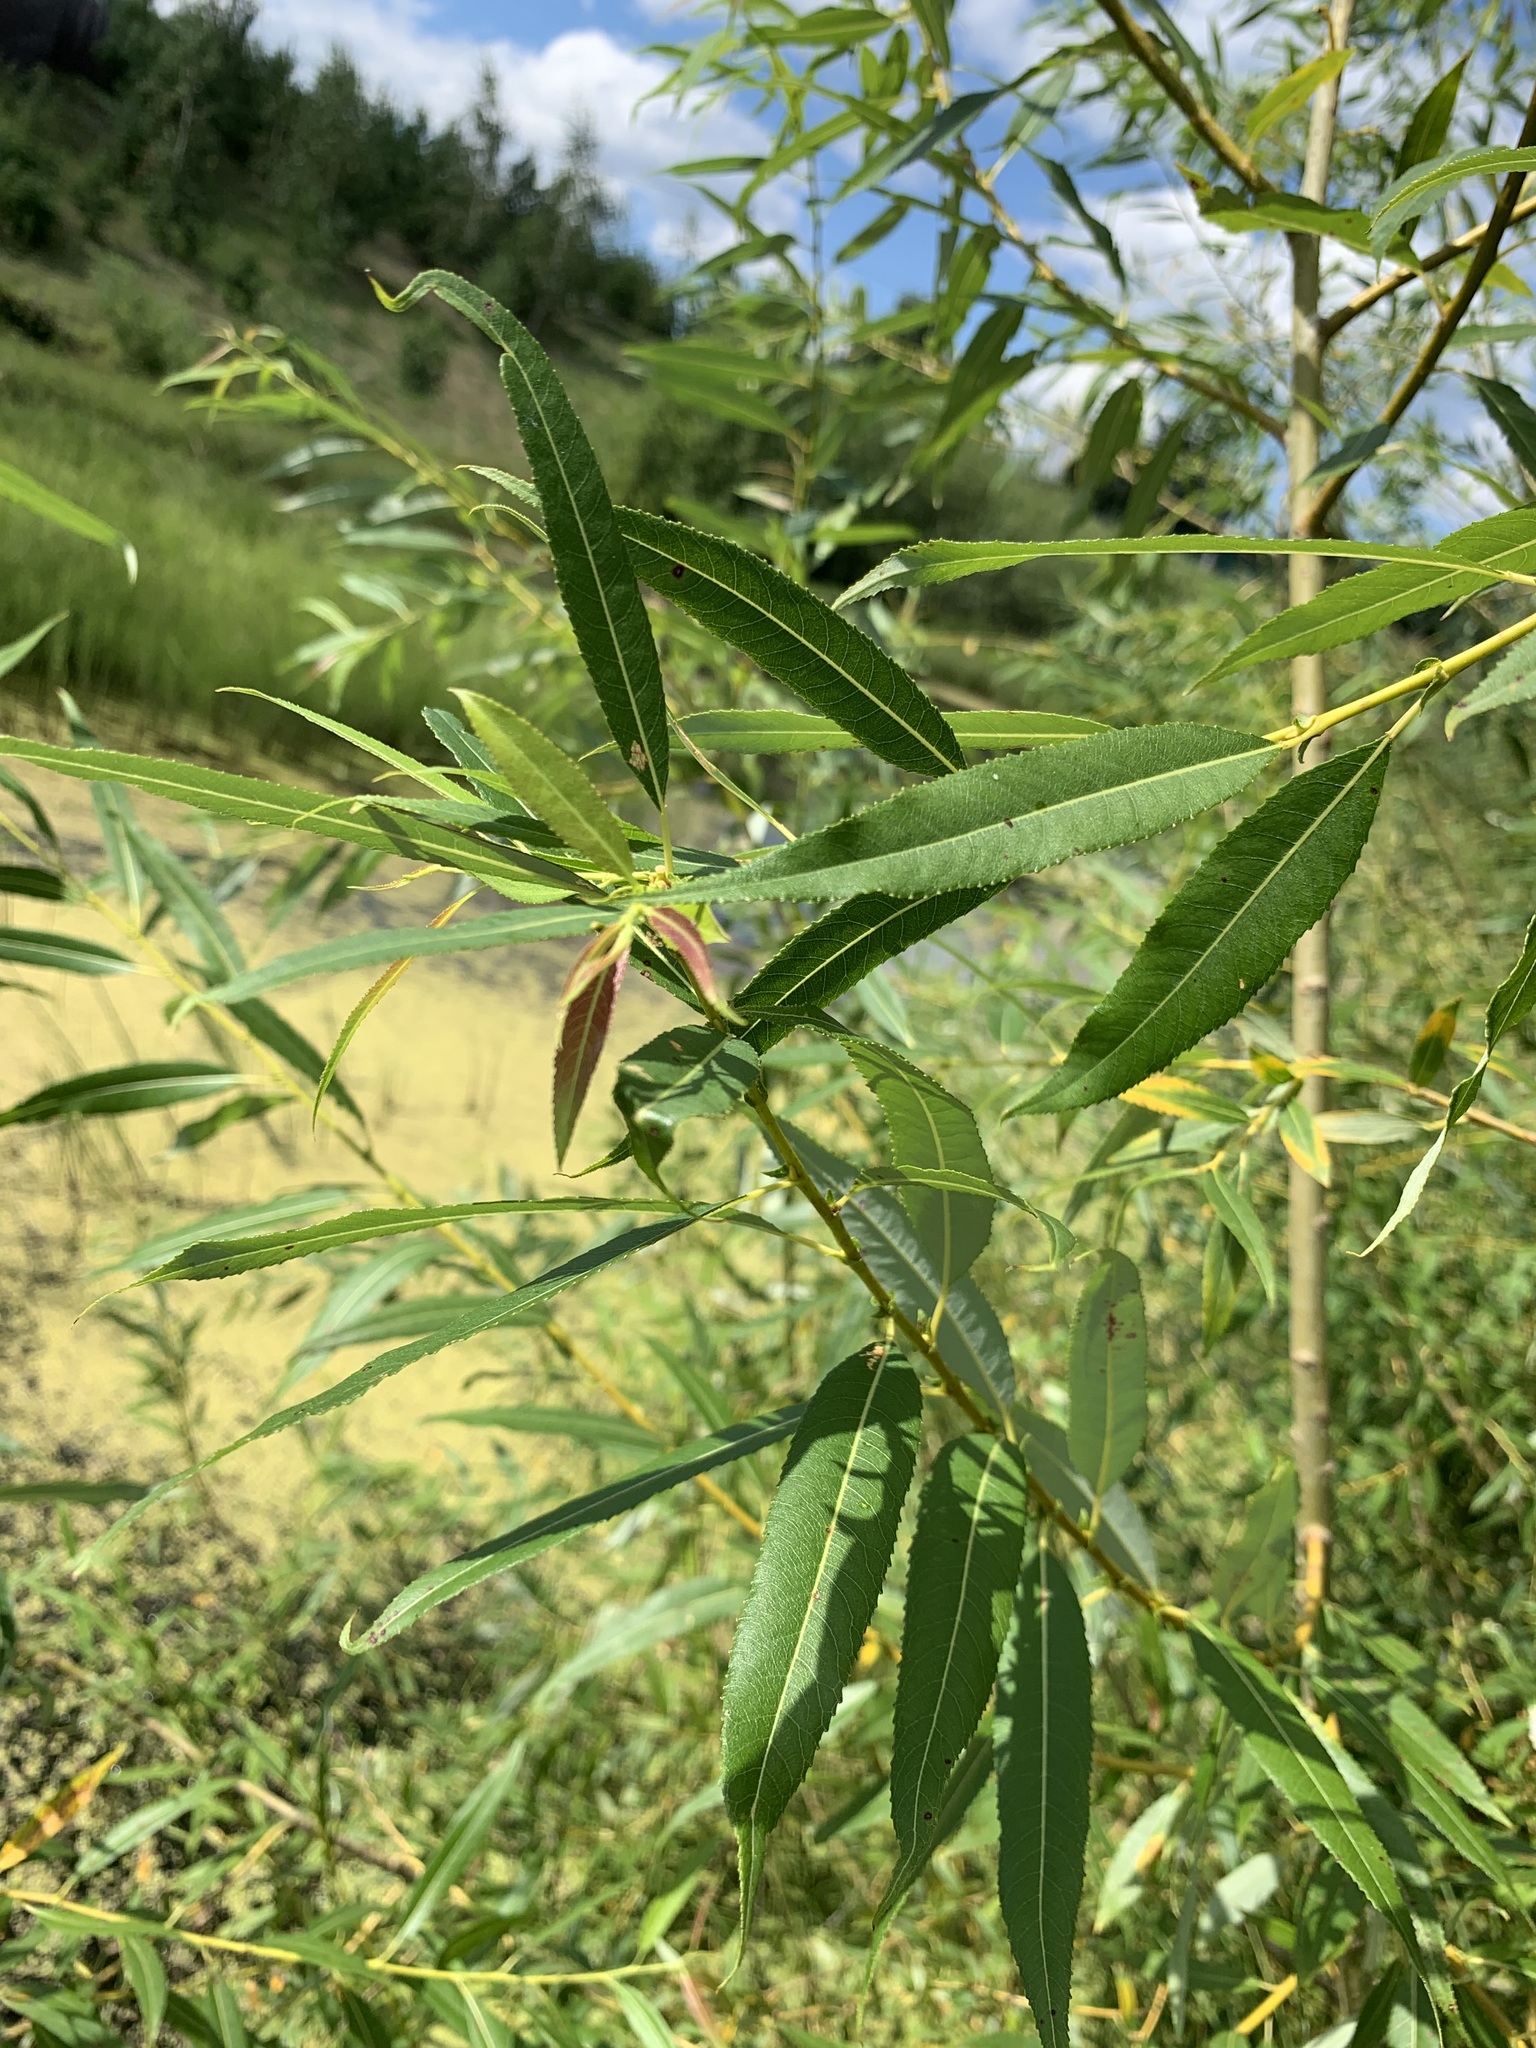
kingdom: Plantae
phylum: Tracheophyta
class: Magnoliopsida
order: Malpighiales
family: Salicaceae
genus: Salix
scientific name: Salix triandra
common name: Almond willow
